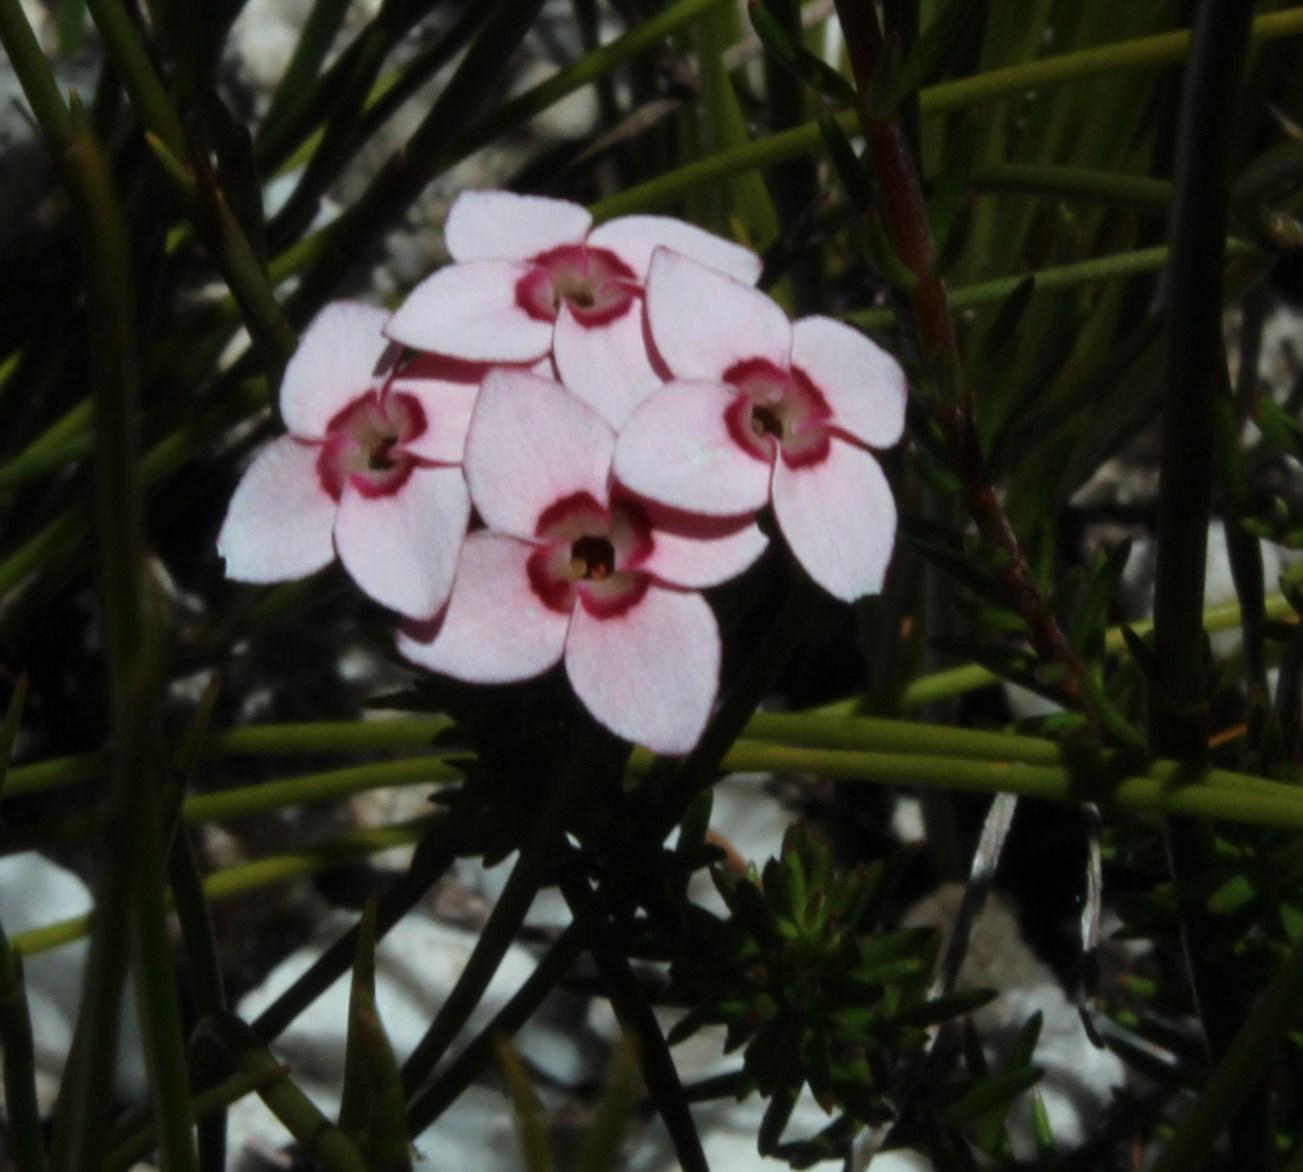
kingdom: Plantae
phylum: Tracheophyta
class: Magnoliopsida
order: Ericales
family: Ericaceae
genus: Erica
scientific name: Erica fastigiata
